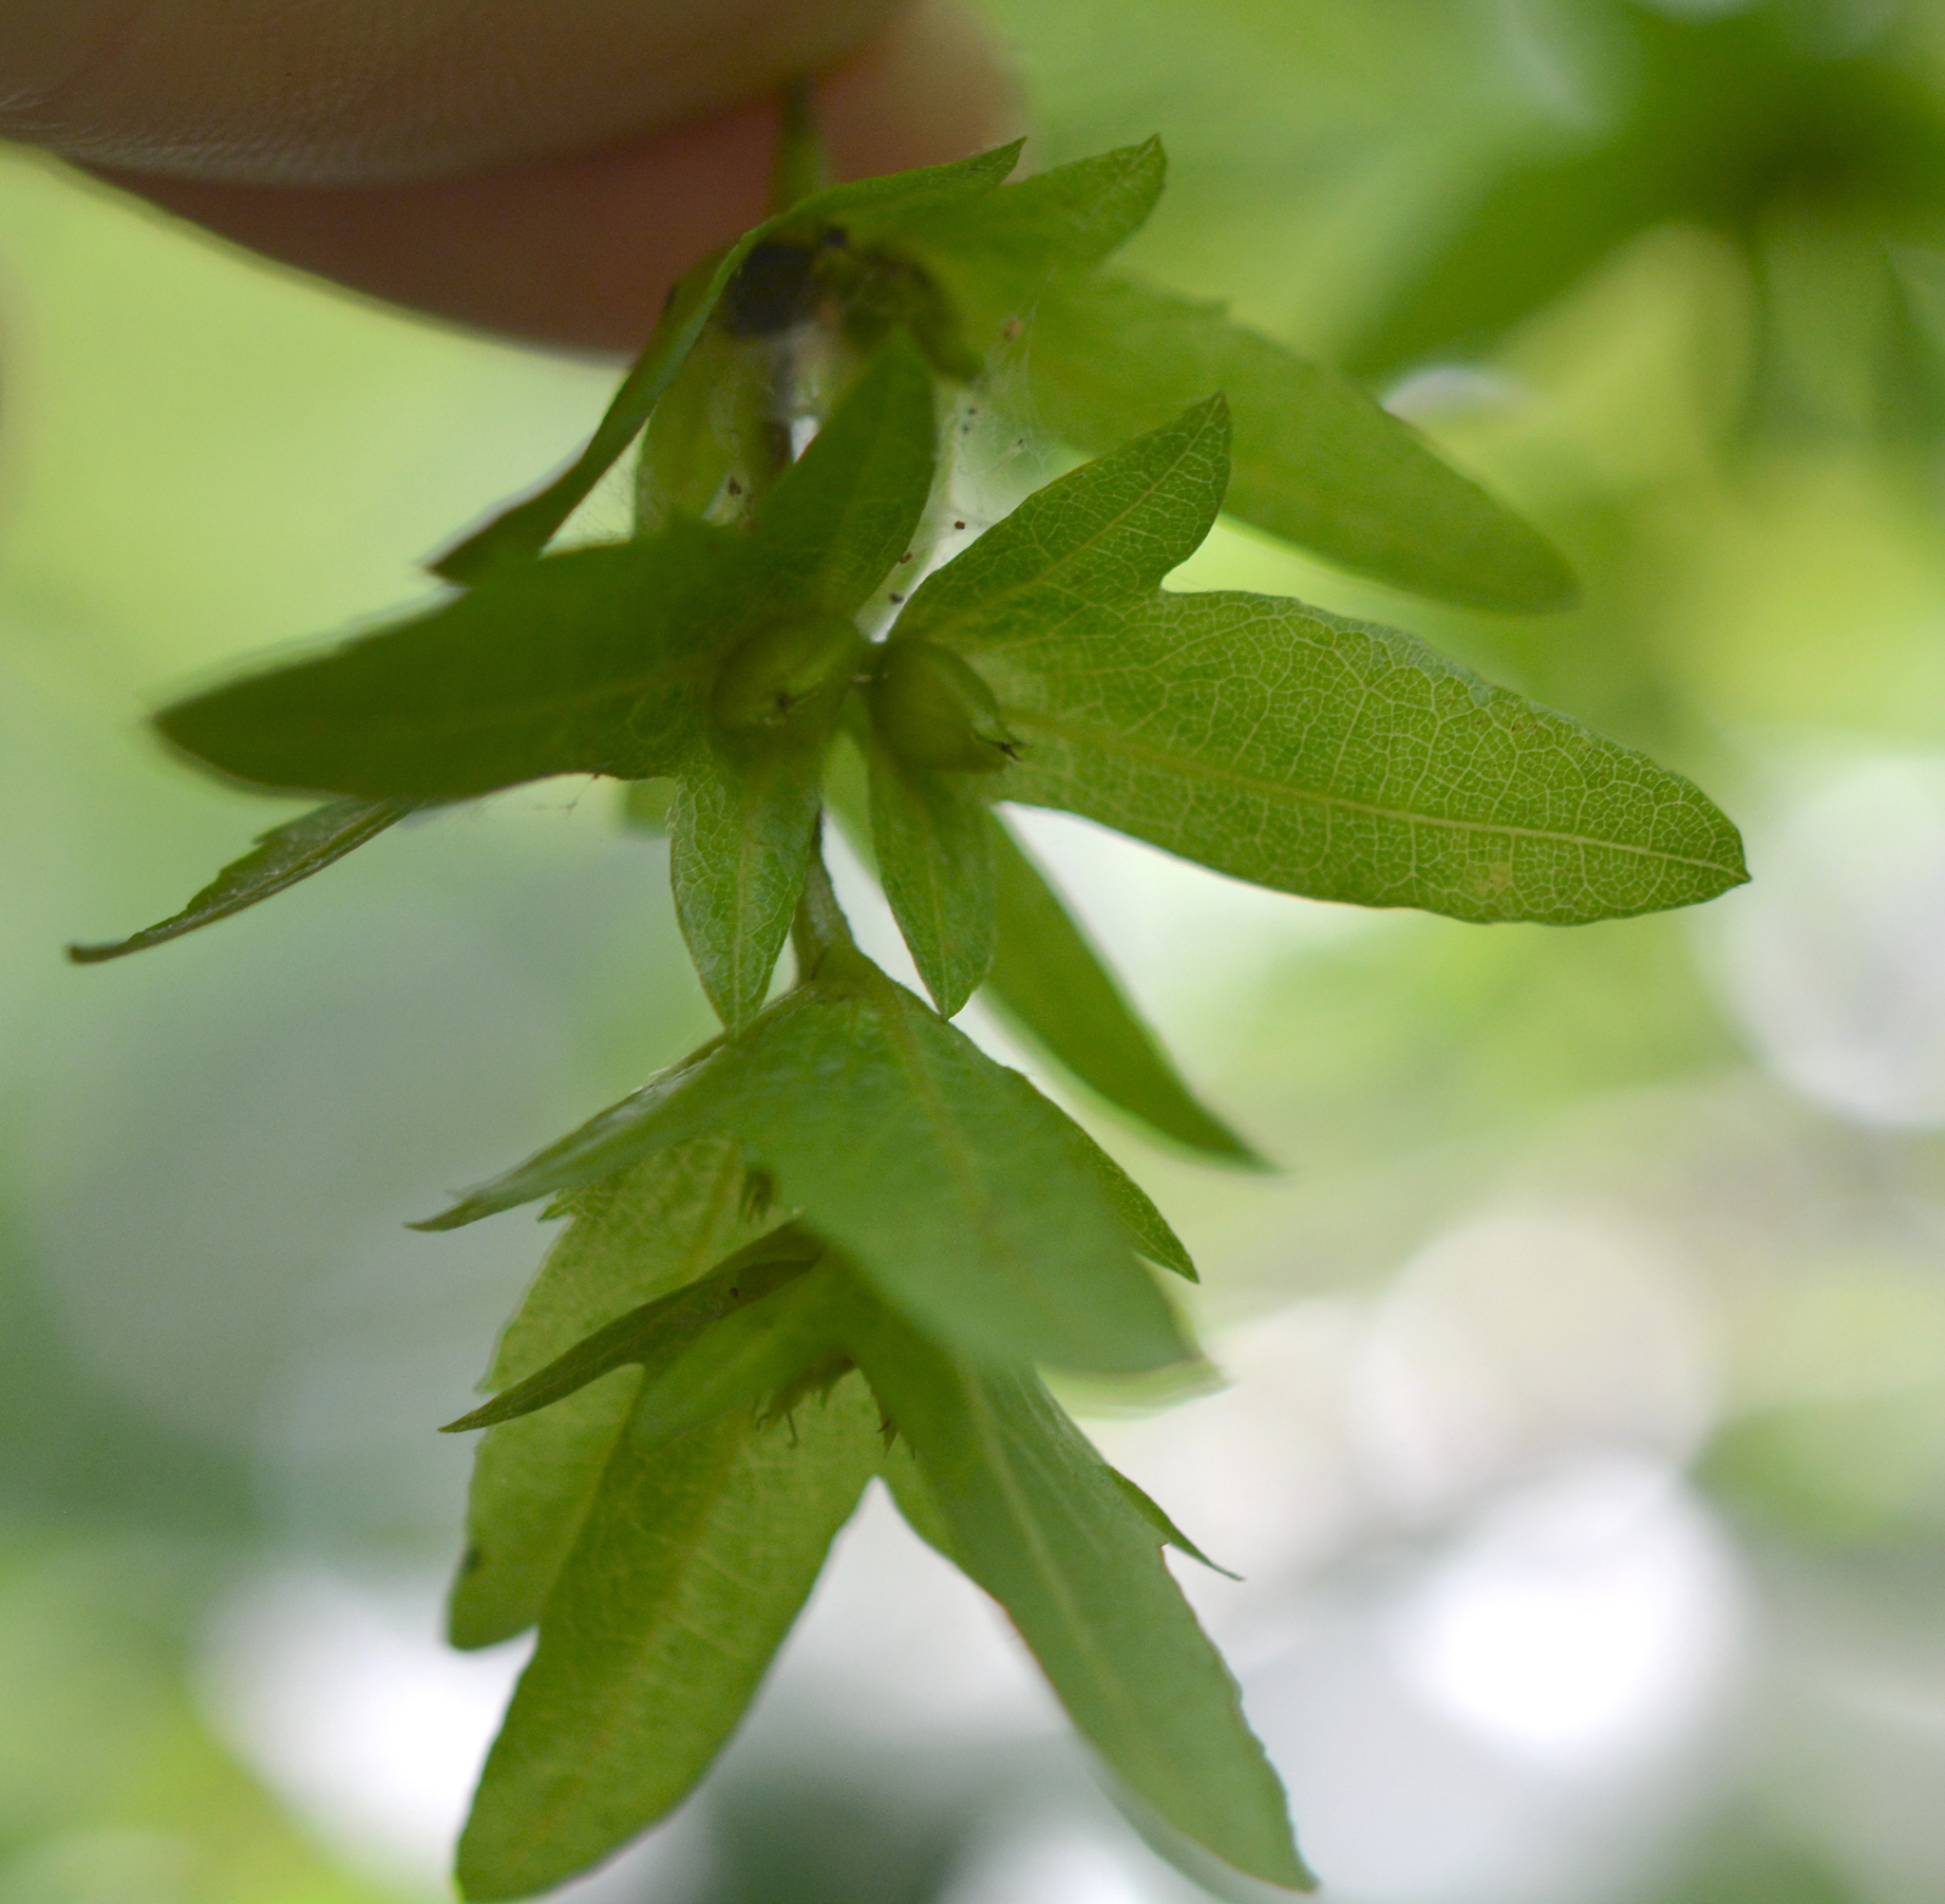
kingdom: Plantae
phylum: Tracheophyta
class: Magnoliopsida
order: Fagales
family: Betulaceae
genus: Carpinus
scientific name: Carpinus caroliniana
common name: American hornbeam
